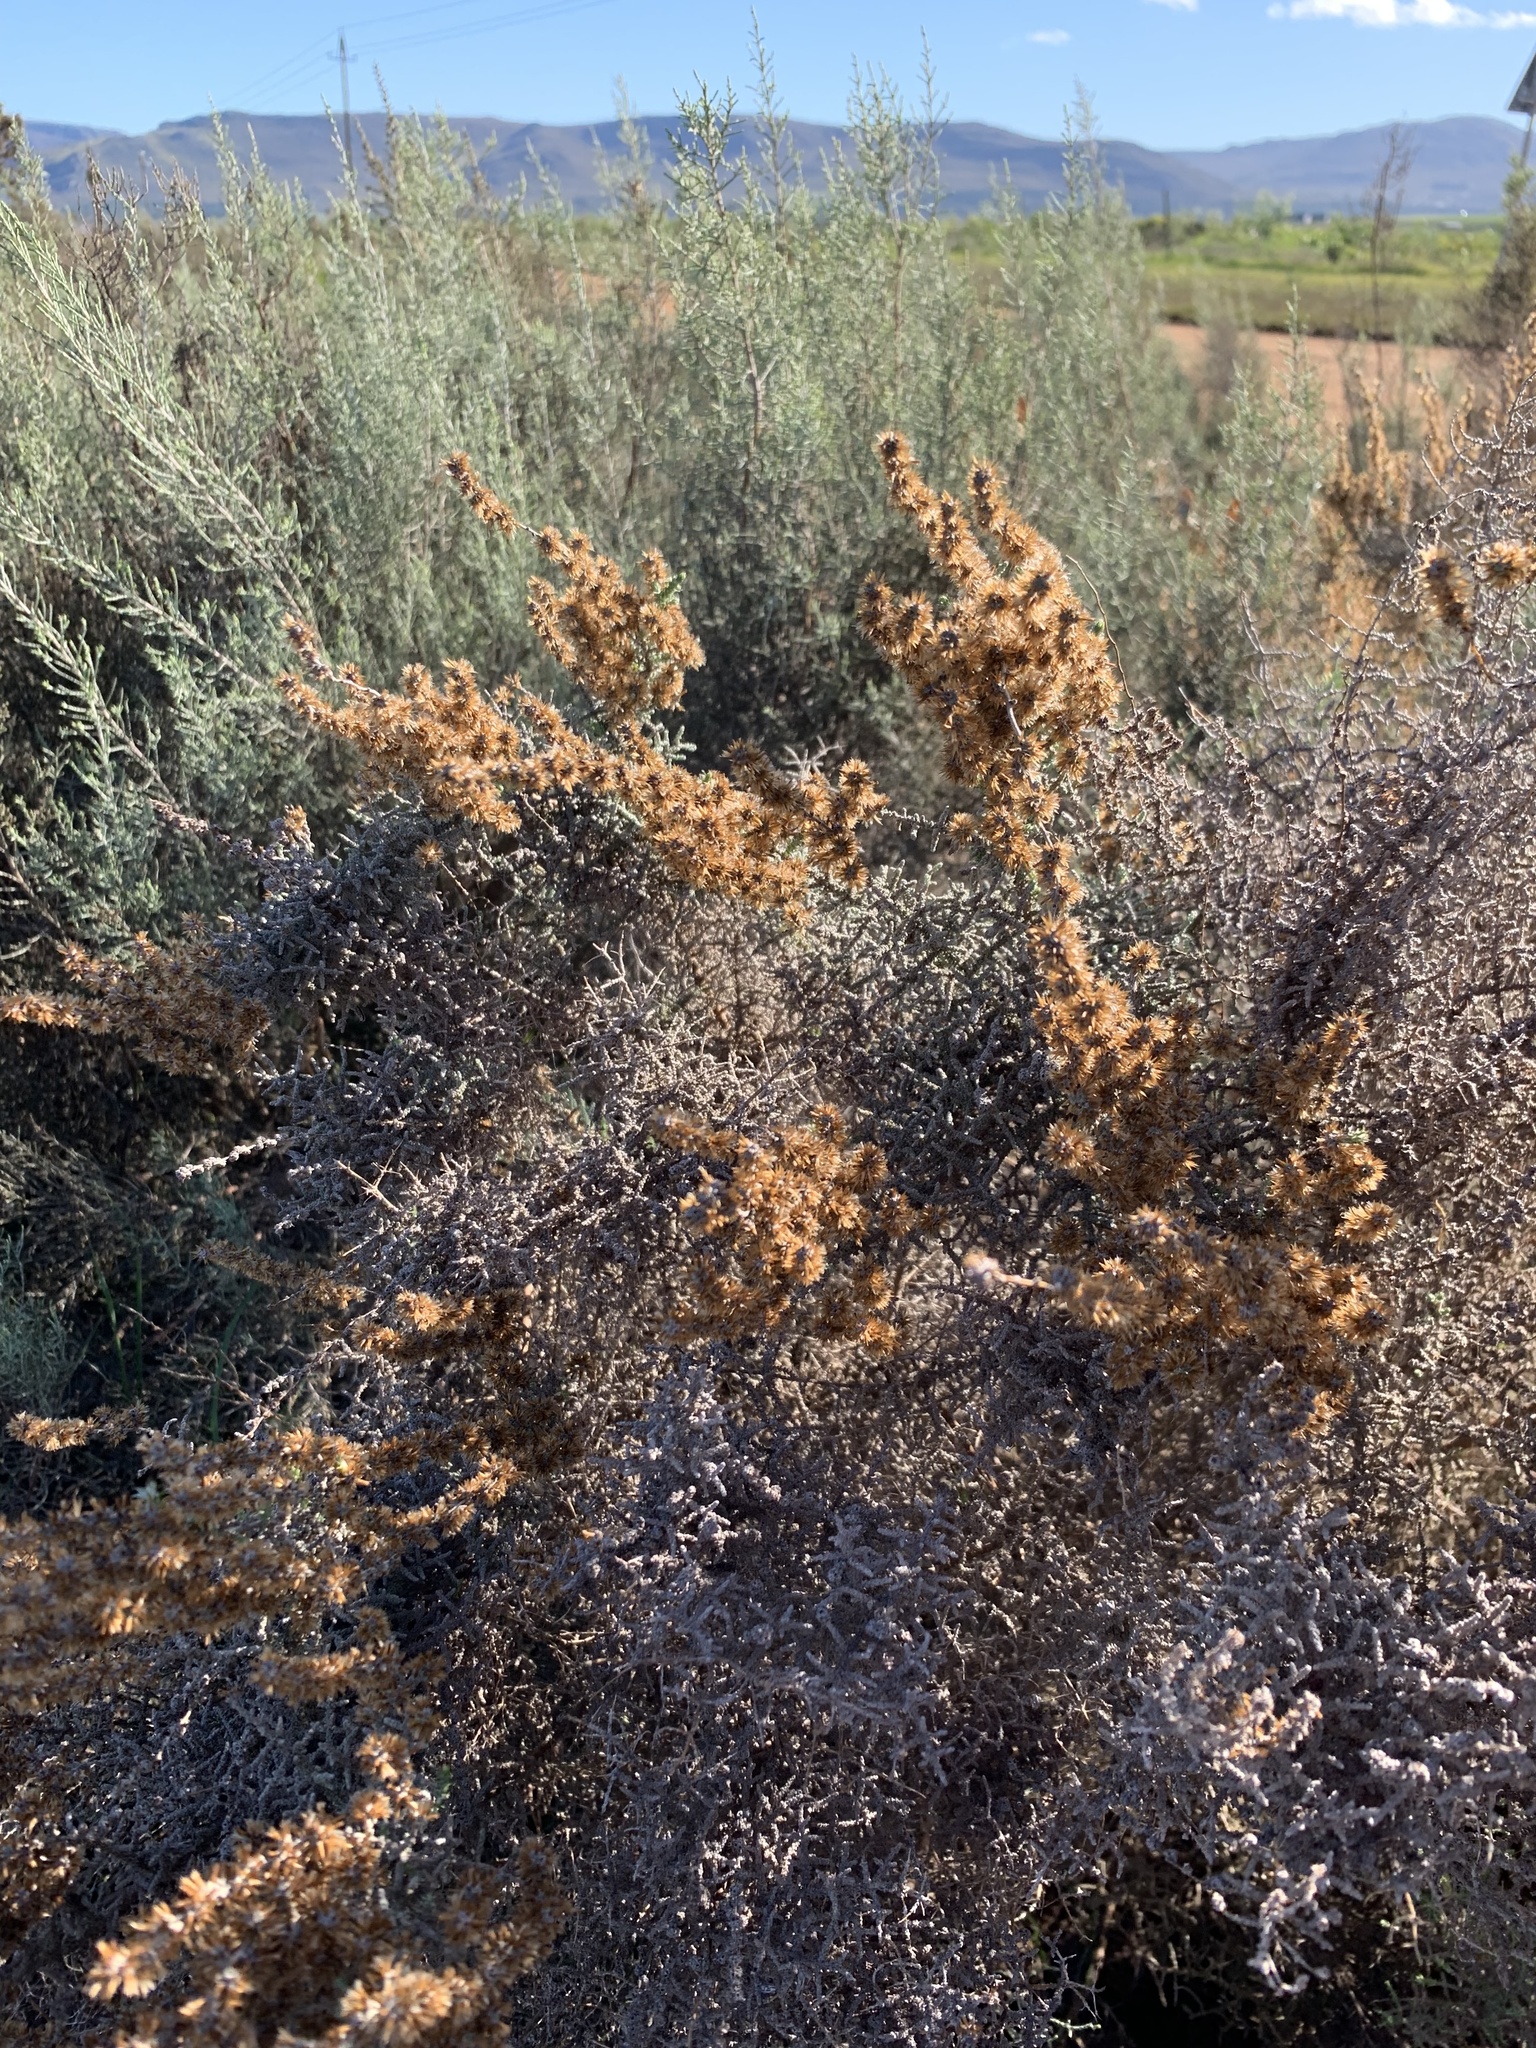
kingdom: Plantae
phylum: Tracheophyta
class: Magnoliopsida
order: Asterales
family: Asteraceae
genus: Seriphium
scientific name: Seriphium plumosum
